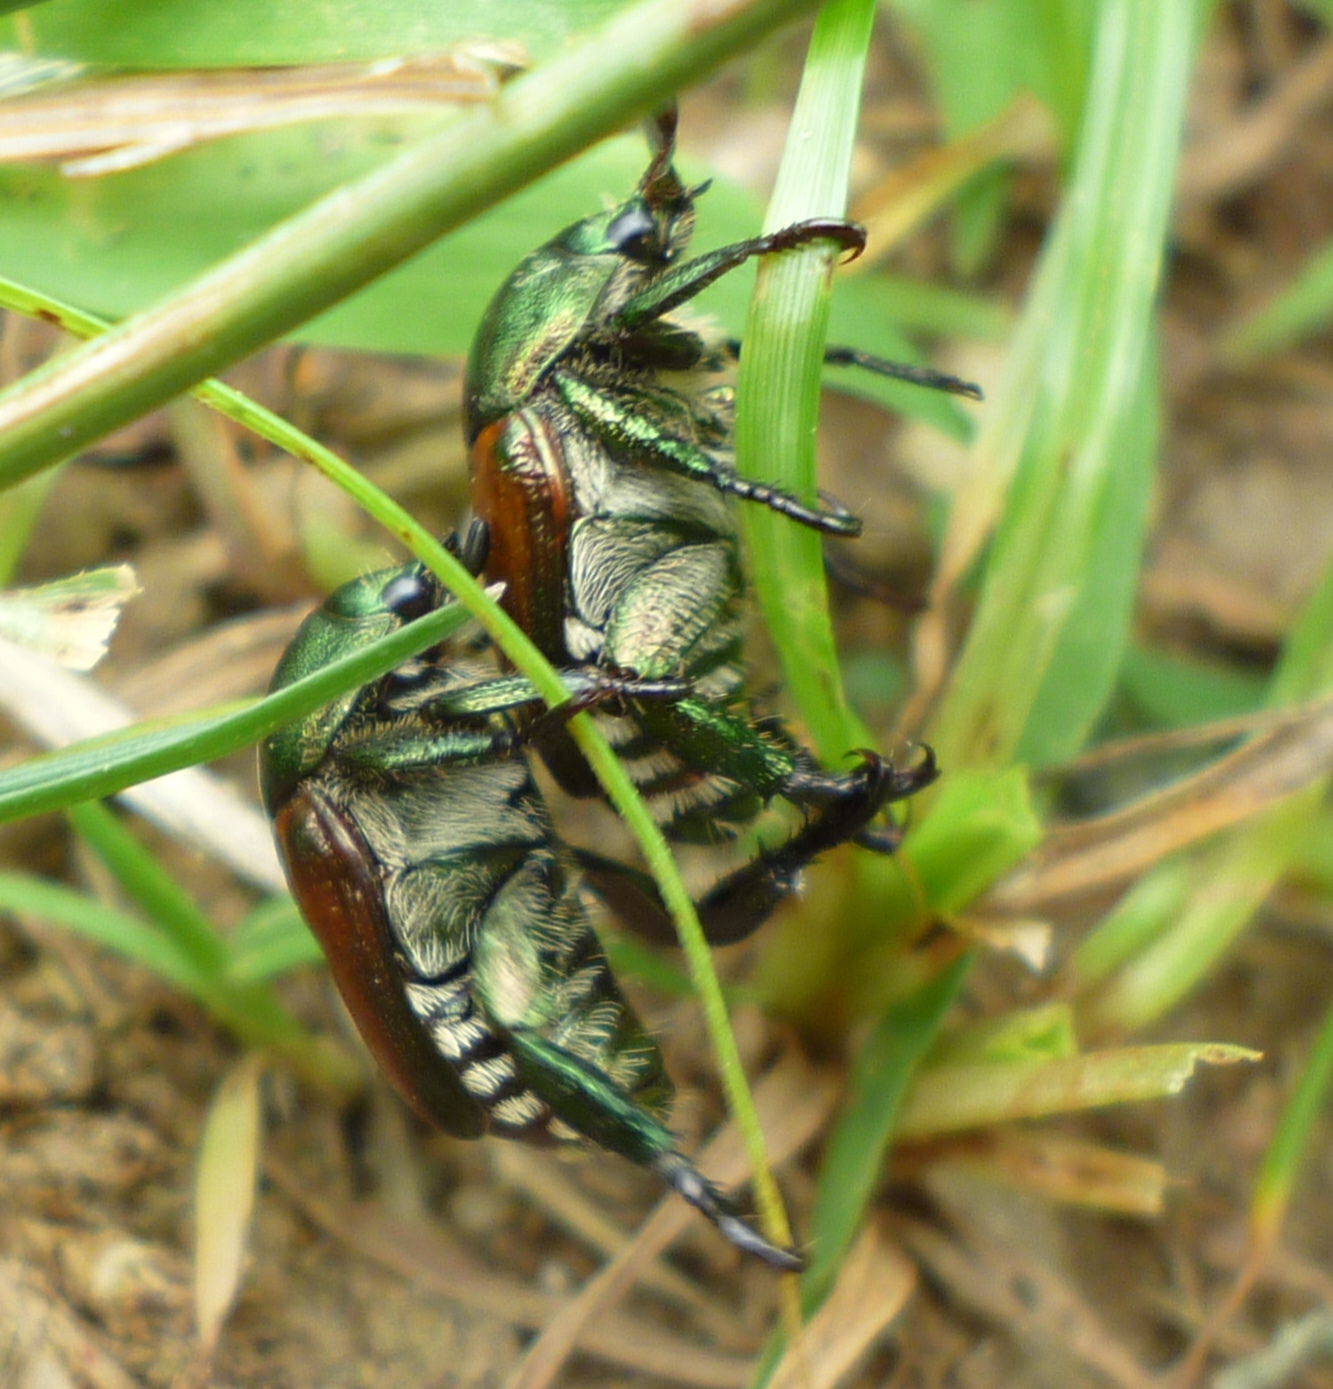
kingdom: Animalia
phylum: Arthropoda
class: Insecta
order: Coleoptera
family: Scarabaeidae
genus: Popillia
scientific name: Popillia japonica
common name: Japanese beetle
